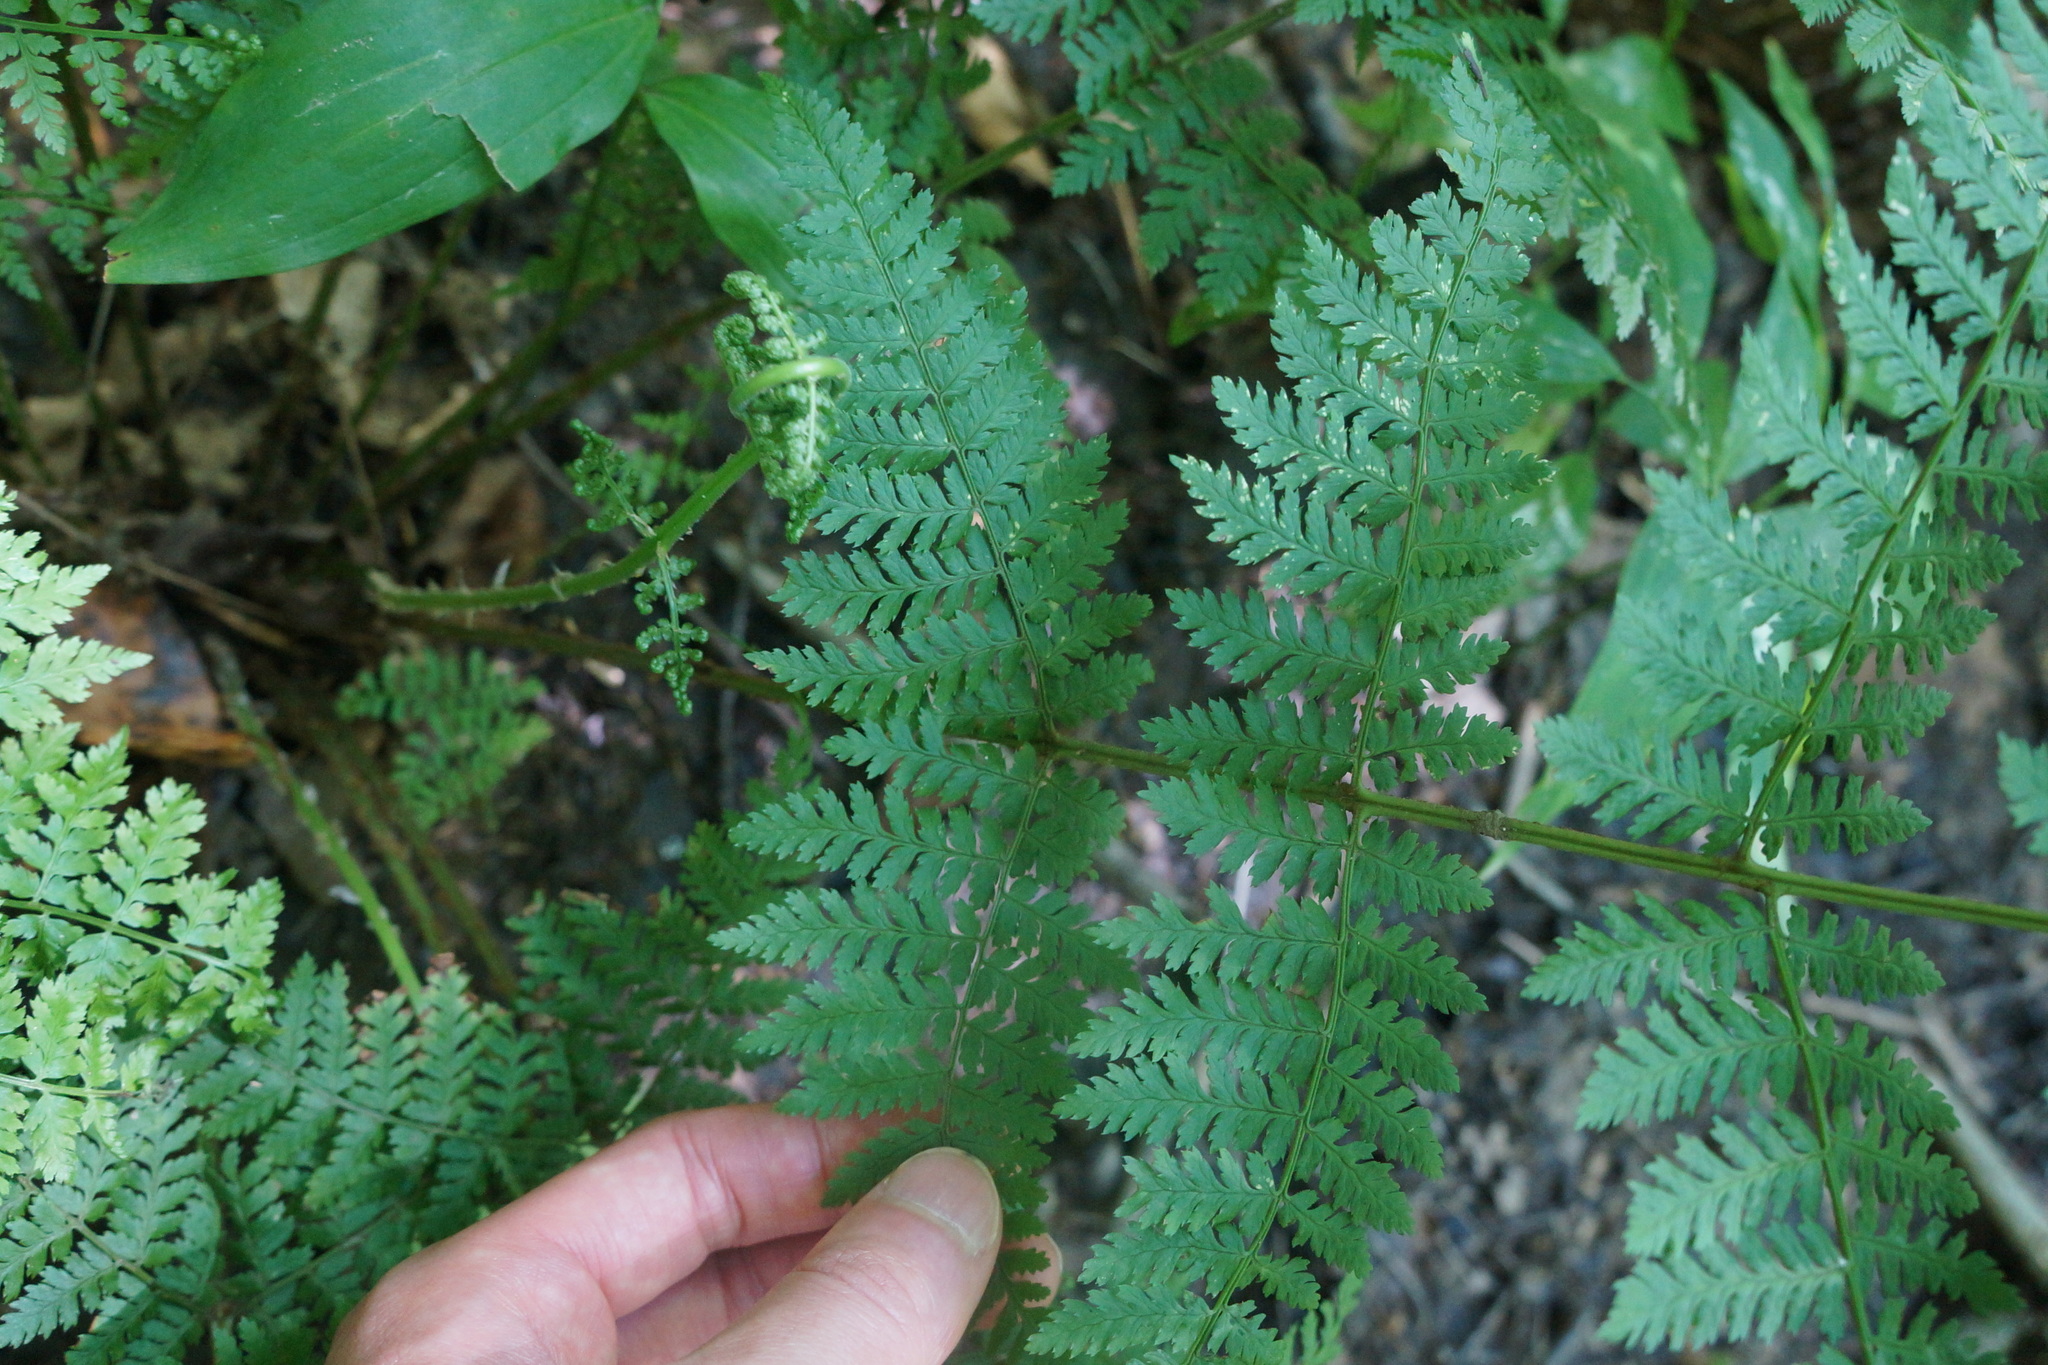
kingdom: Plantae
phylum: Tracheophyta
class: Polypodiopsida
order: Polypodiales
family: Dryopteridaceae
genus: Dryopteris
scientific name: Dryopteris intermedia
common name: Evergreen wood fern
